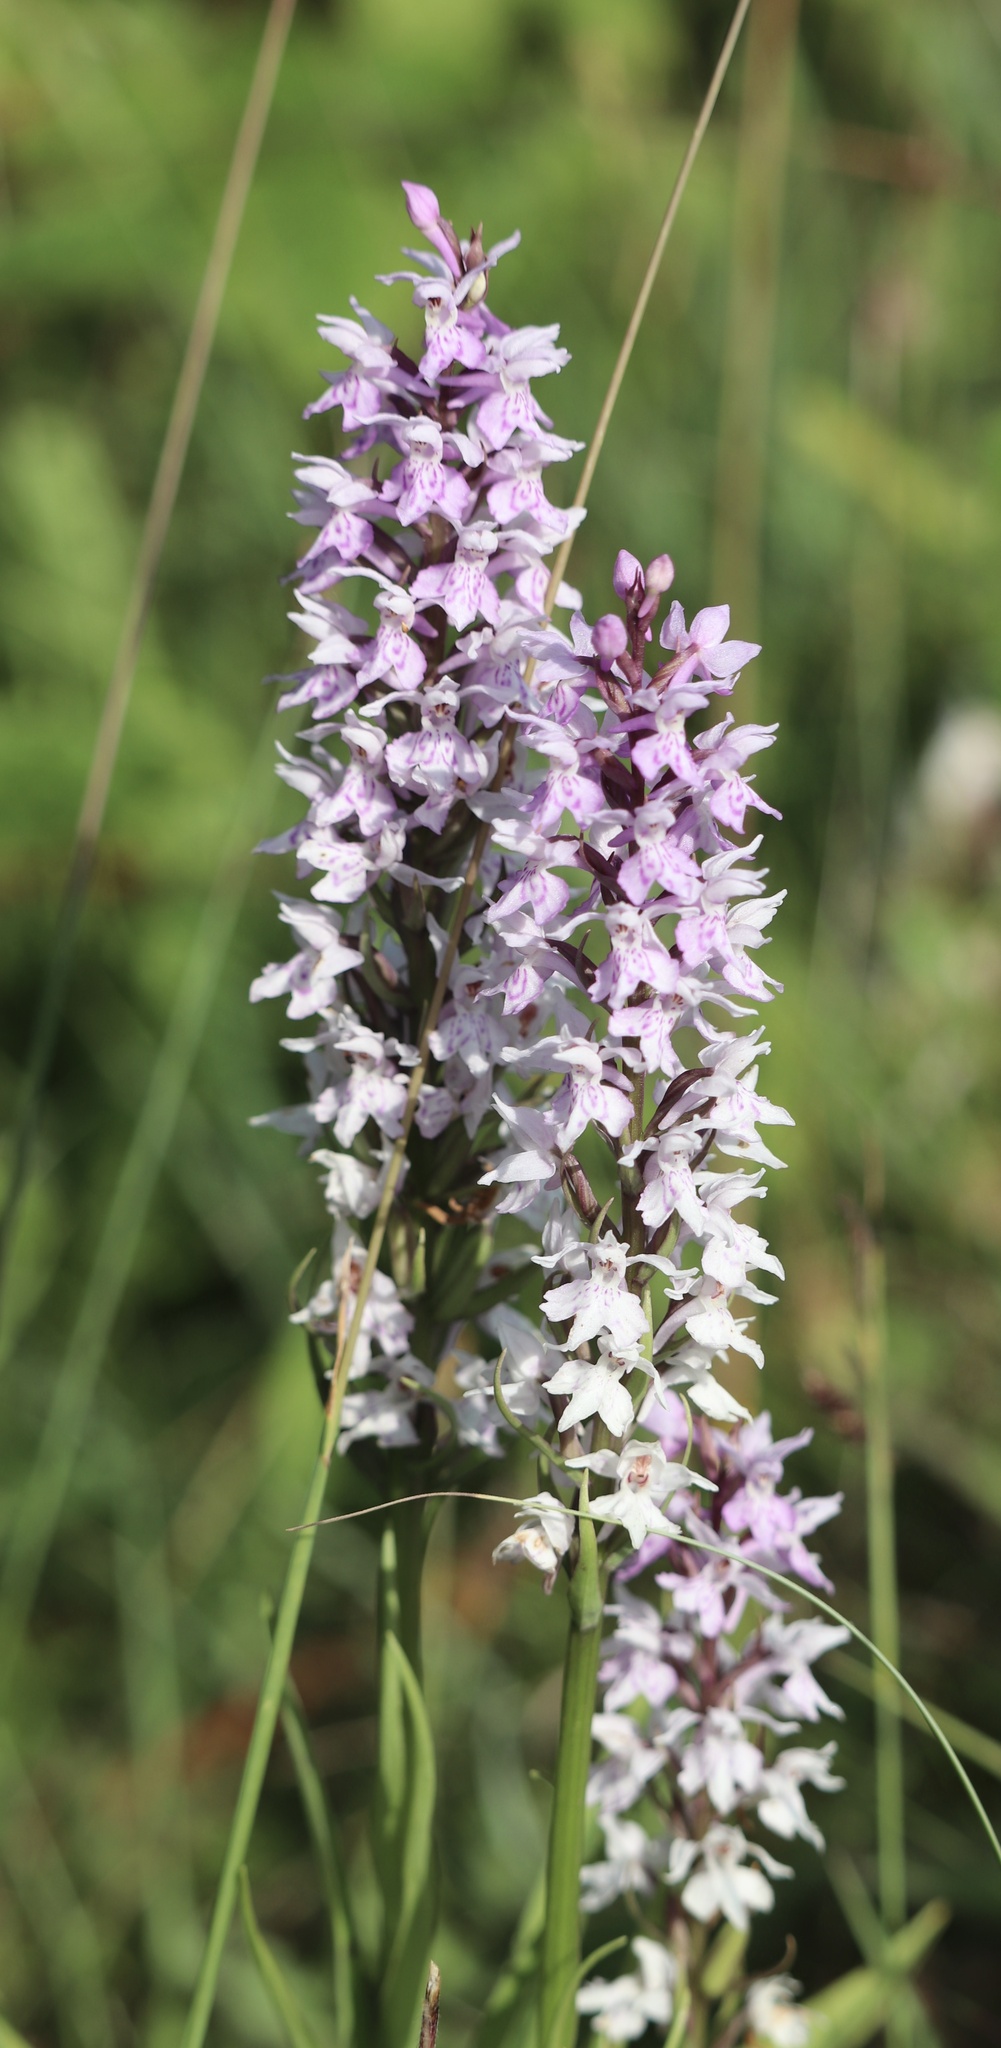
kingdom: Plantae
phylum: Tracheophyta
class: Liliopsida
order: Asparagales
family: Orchidaceae
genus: Dactylorhiza
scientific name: Dactylorhiza maculata
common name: Heath spotted-orchid
